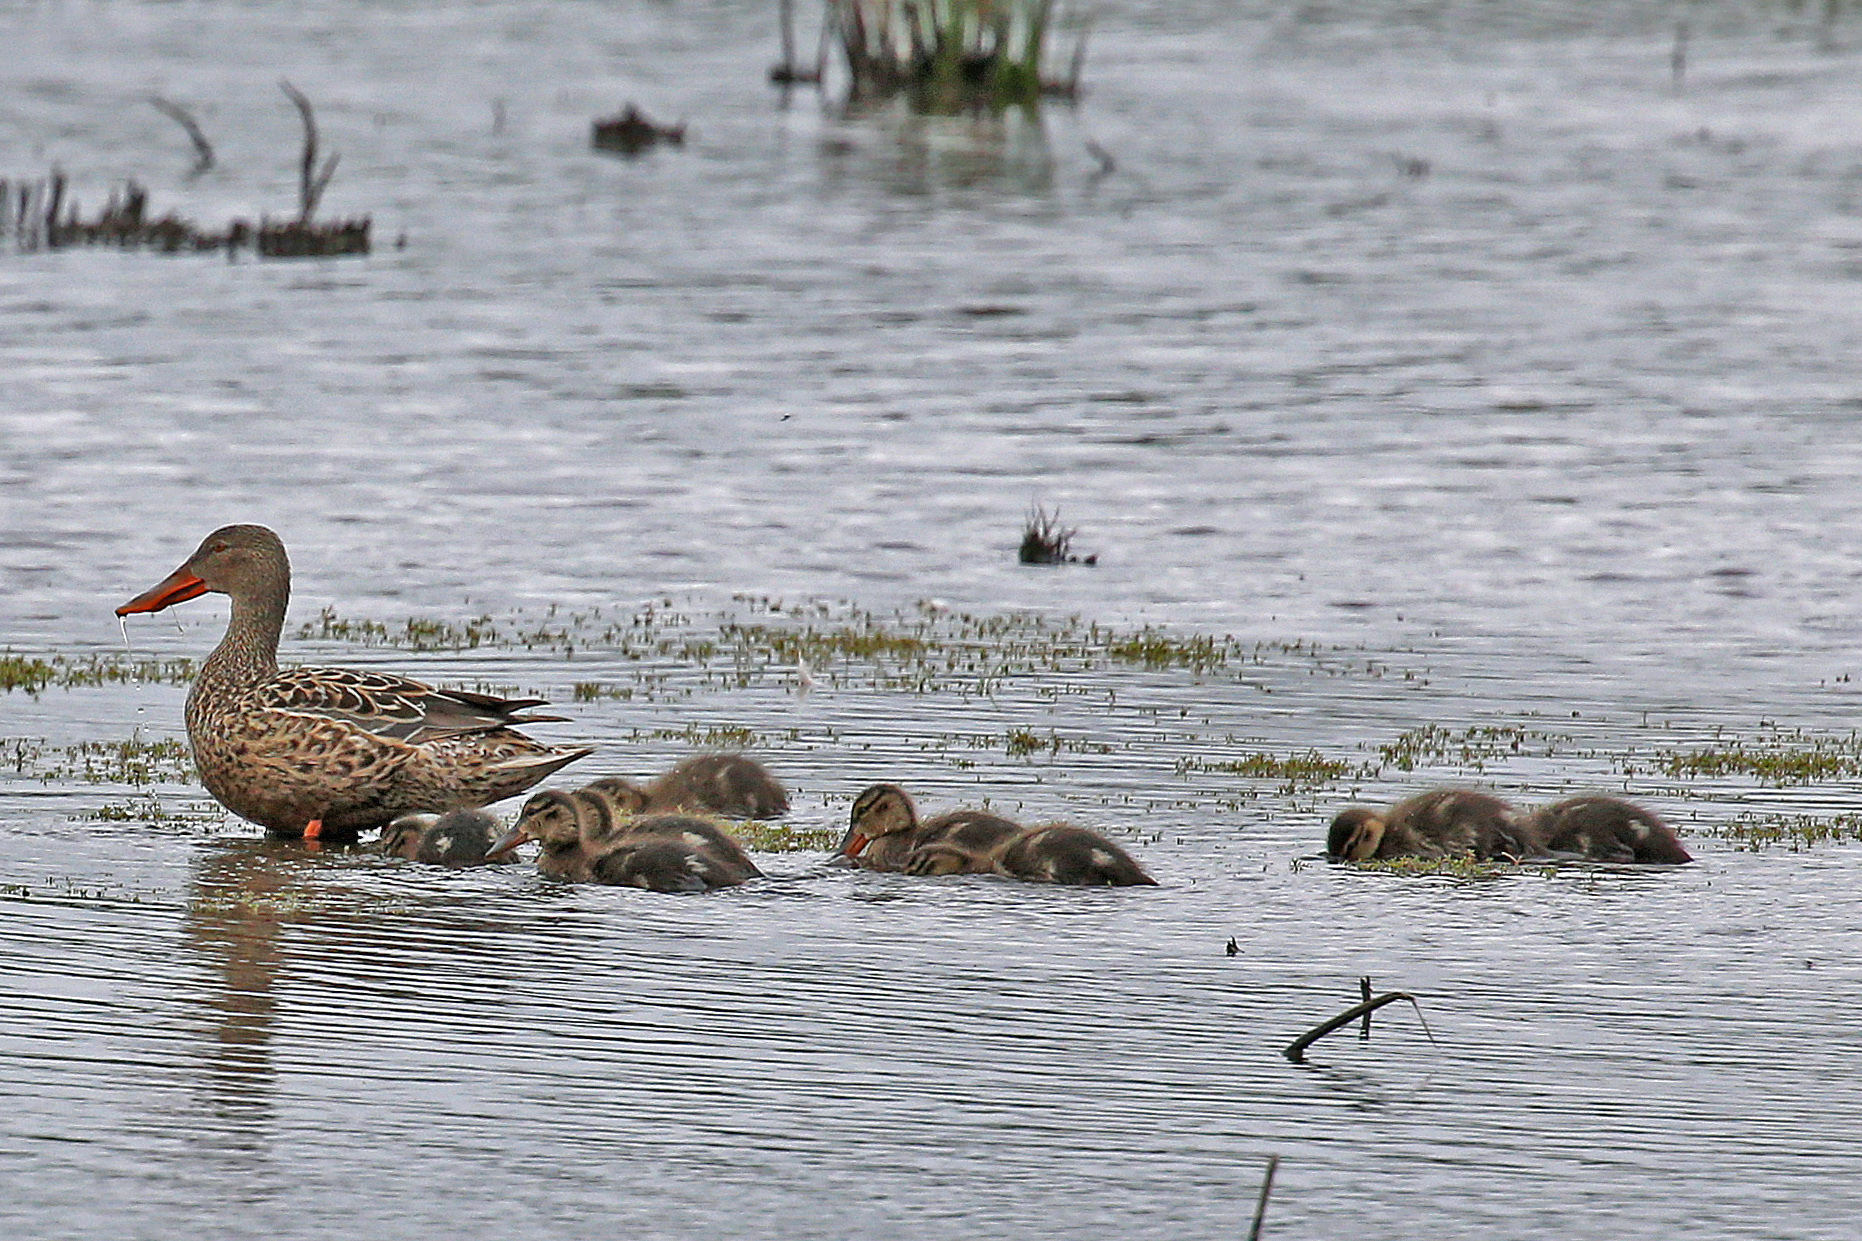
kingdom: Animalia
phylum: Chordata
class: Aves
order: Anseriformes
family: Anatidae
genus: Spatula
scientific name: Spatula clypeata
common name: Northern shoveler
